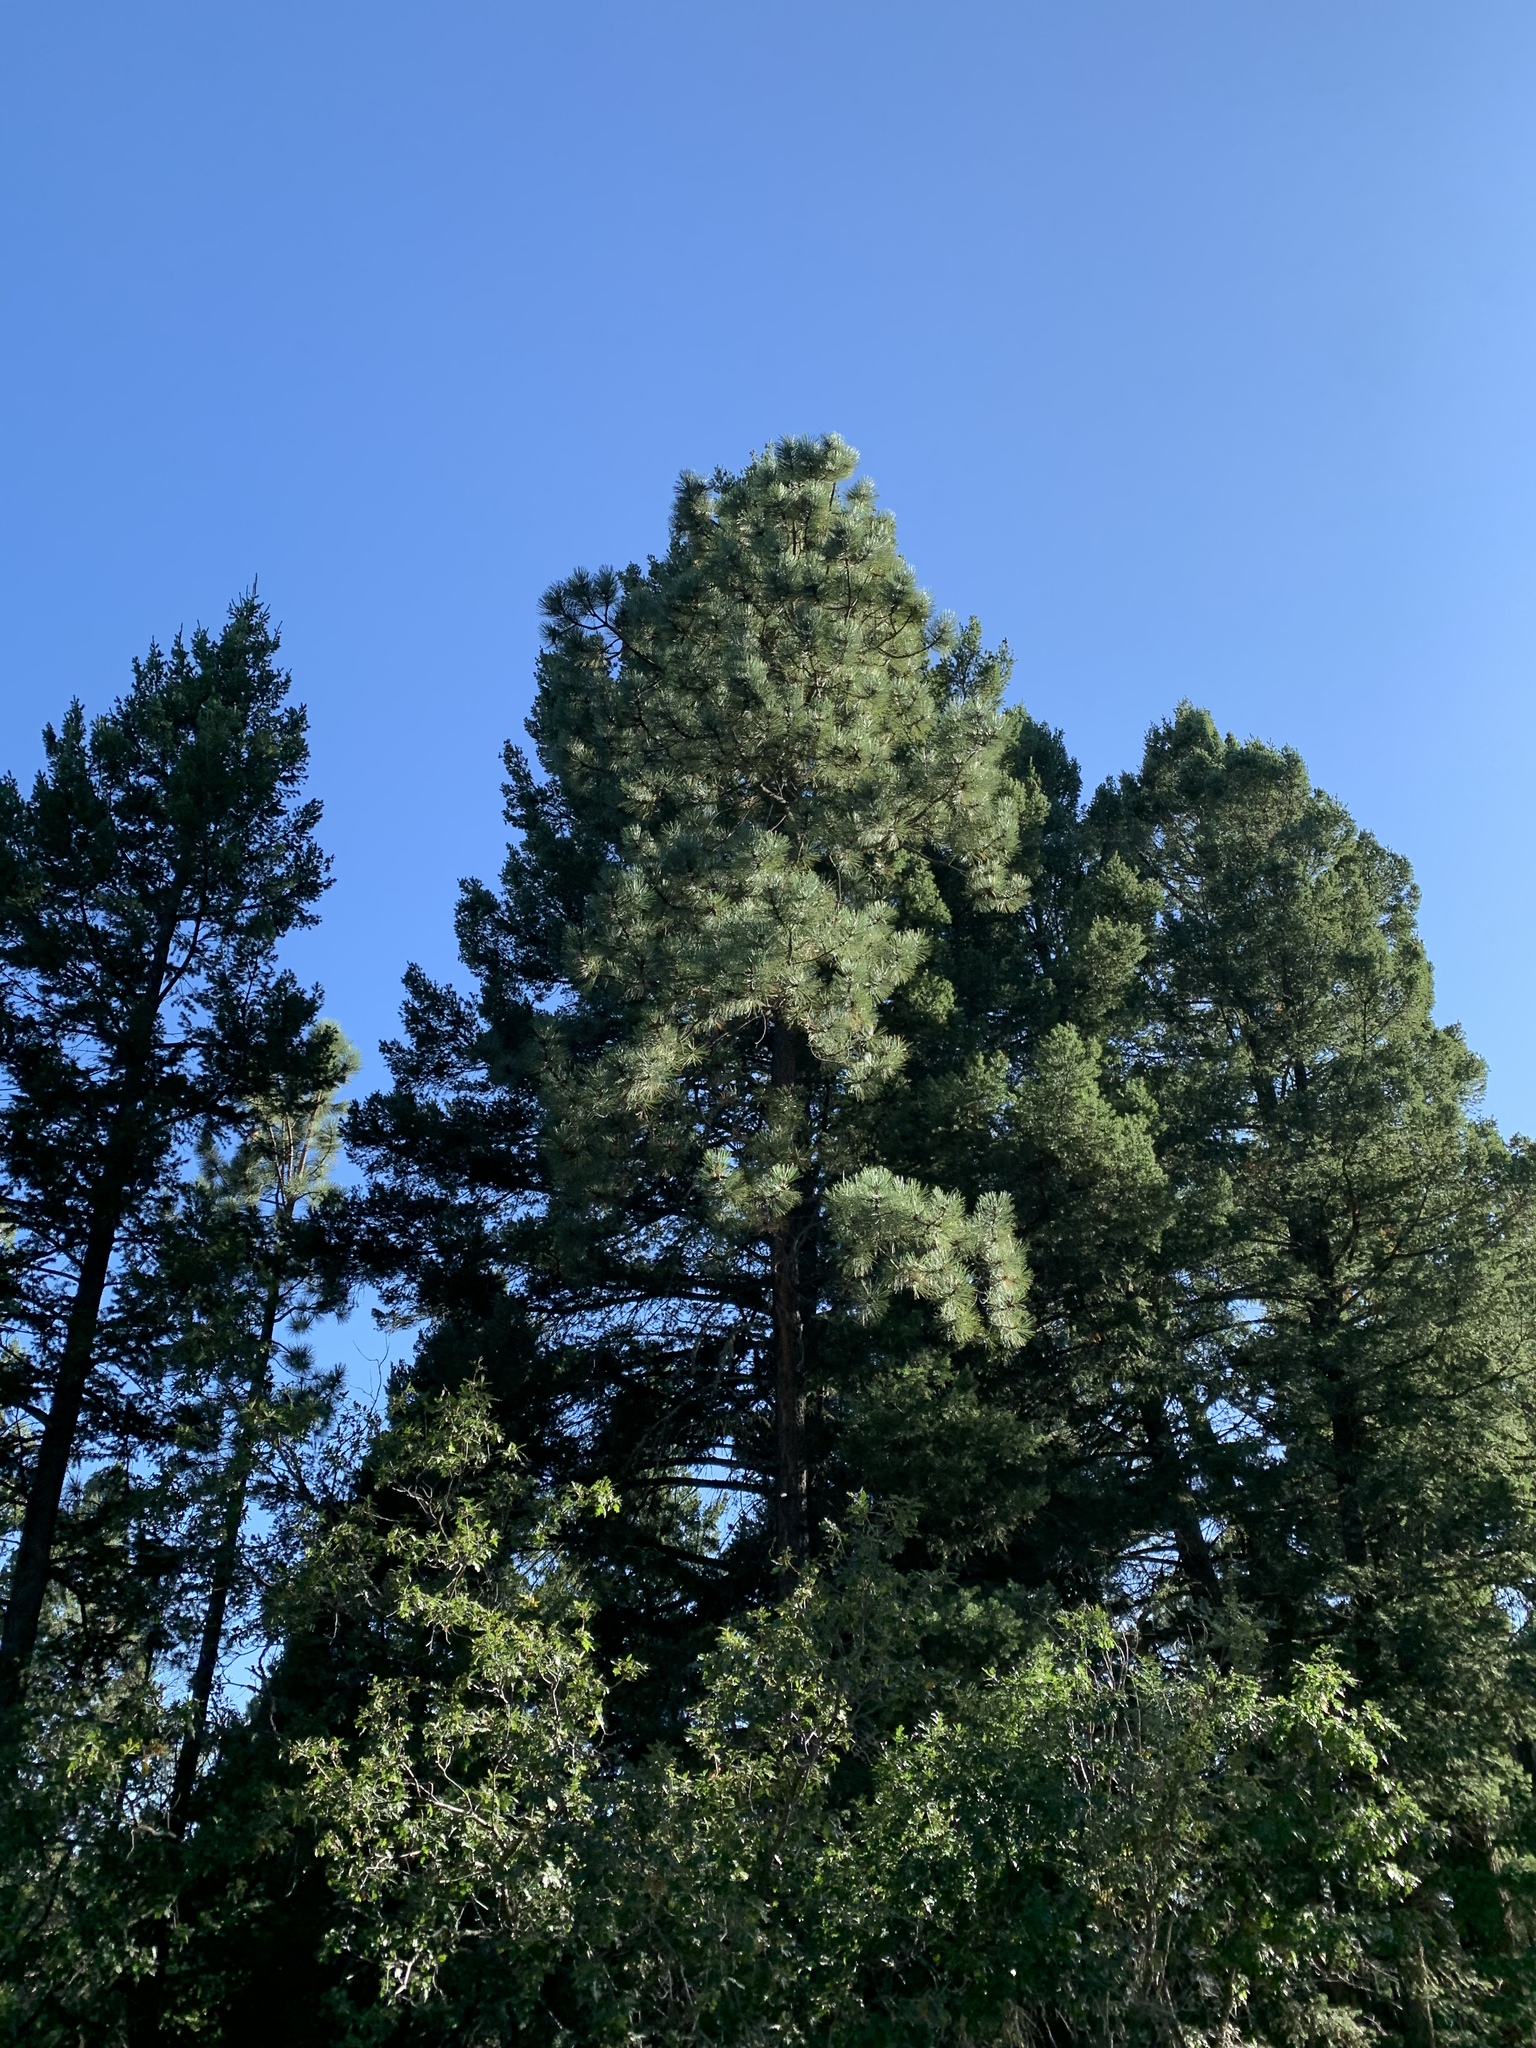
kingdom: Plantae
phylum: Tracheophyta
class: Pinopsida
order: Pinales
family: Pinaceae
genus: Pinus
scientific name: Pinus ponderosa
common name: Western yellow-pine
